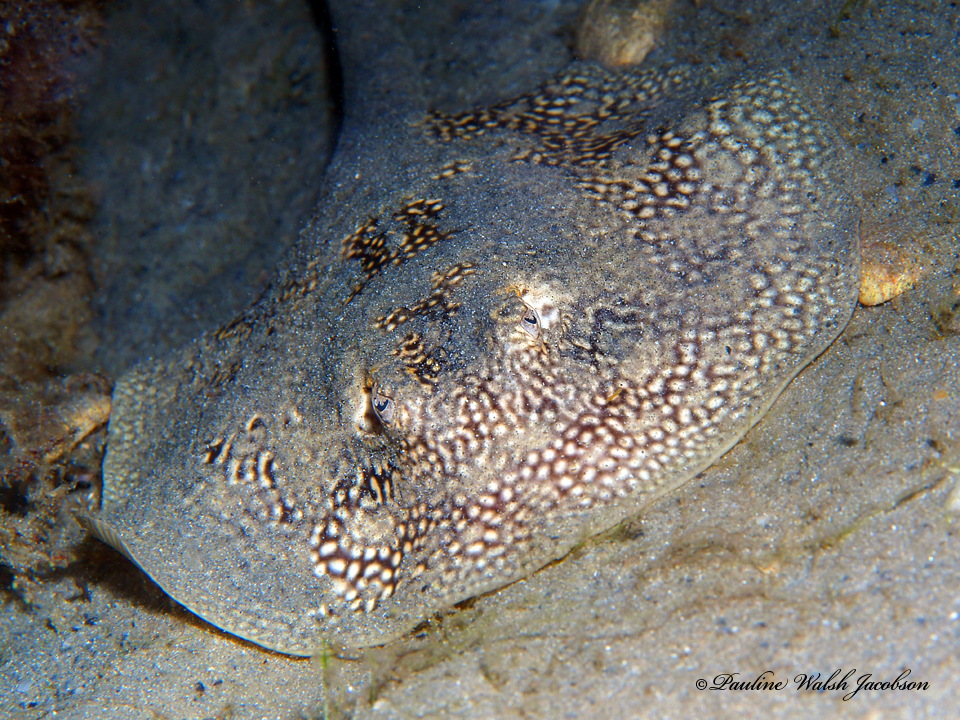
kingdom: Animalia
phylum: Chordata
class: Elasmobranchii
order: Myliobatiformes
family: Urotrygonidae
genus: Urobatis
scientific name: Urobatis jamaicensis
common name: Yellow stingray
